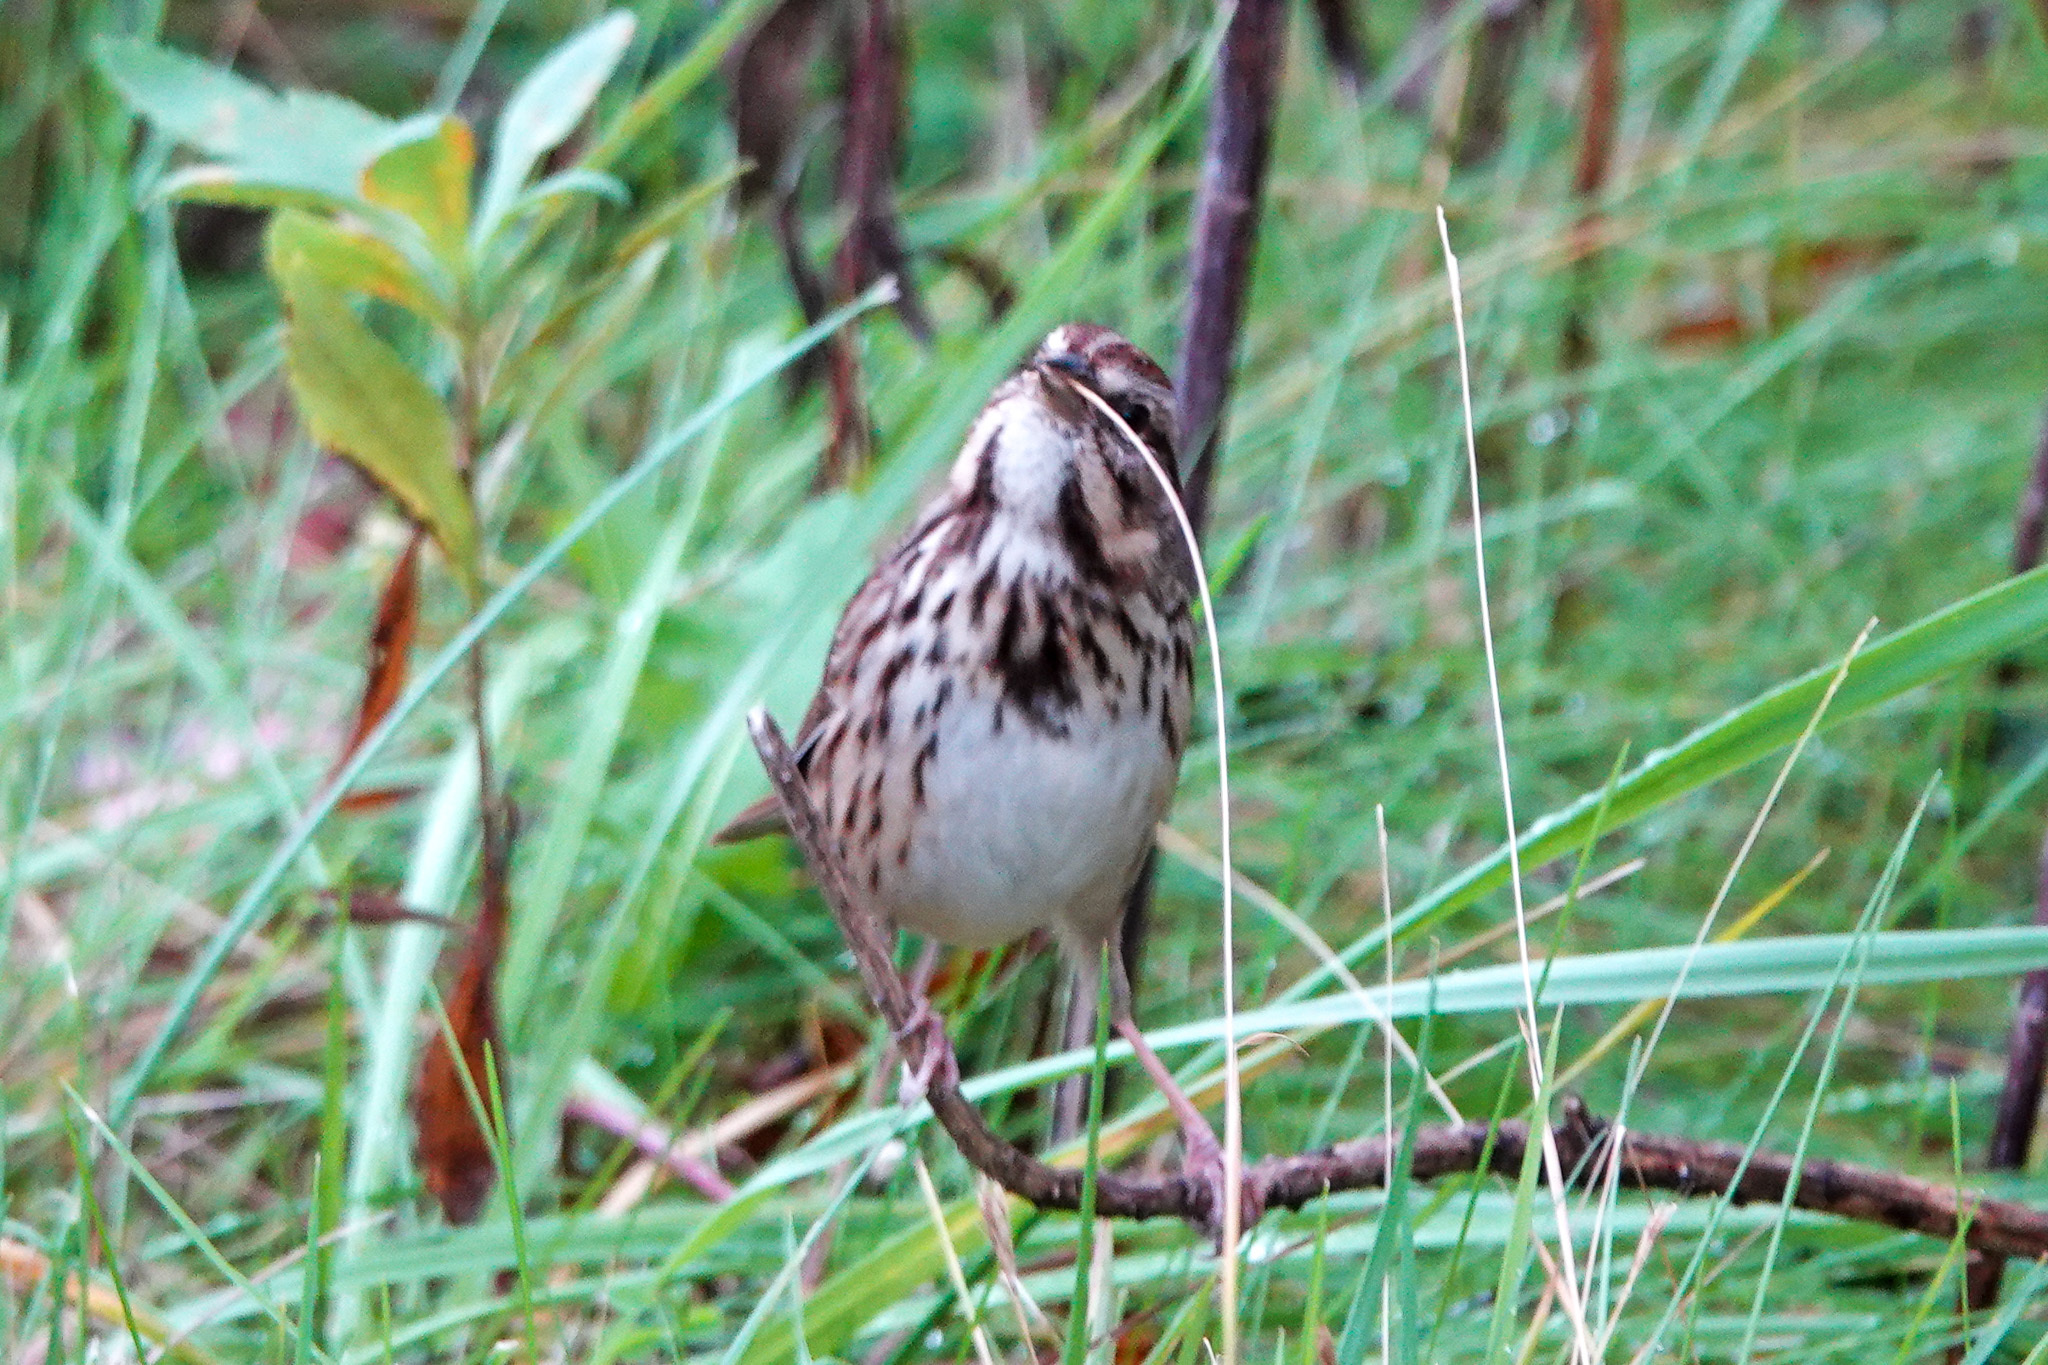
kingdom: Animalia
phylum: Chordata
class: Aves
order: Passeriformes
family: Passerellidae
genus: Melospiza
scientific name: Melospiza melodia
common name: Song sparrow
